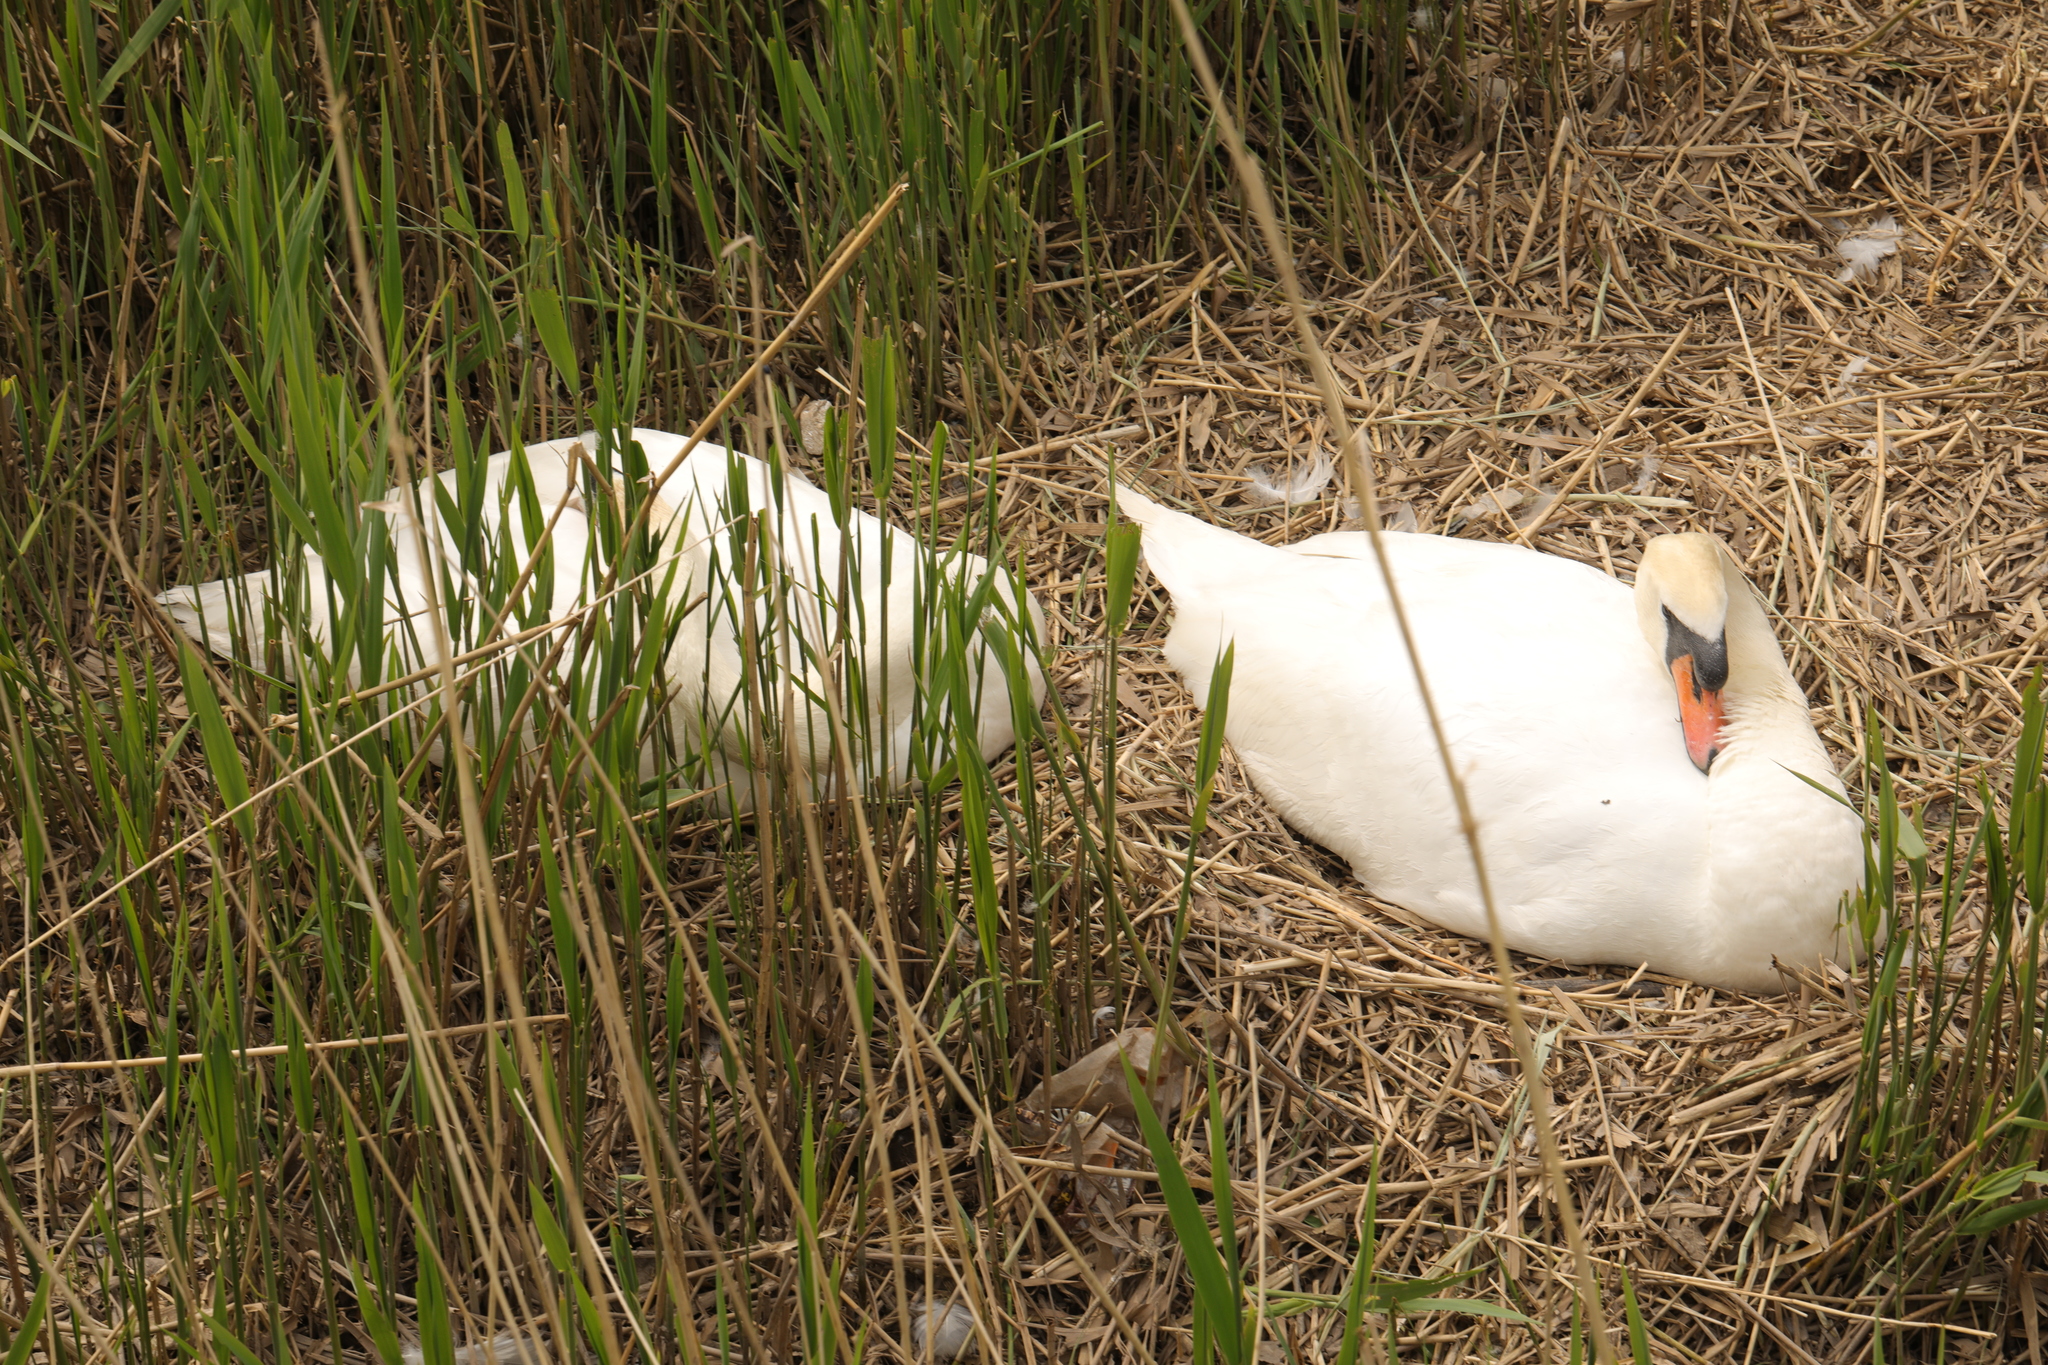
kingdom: Animalia
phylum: Chordata
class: Aves
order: Anseriformes
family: Anatidae
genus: Cygnus
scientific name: Cygnus olor
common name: Mute swan
